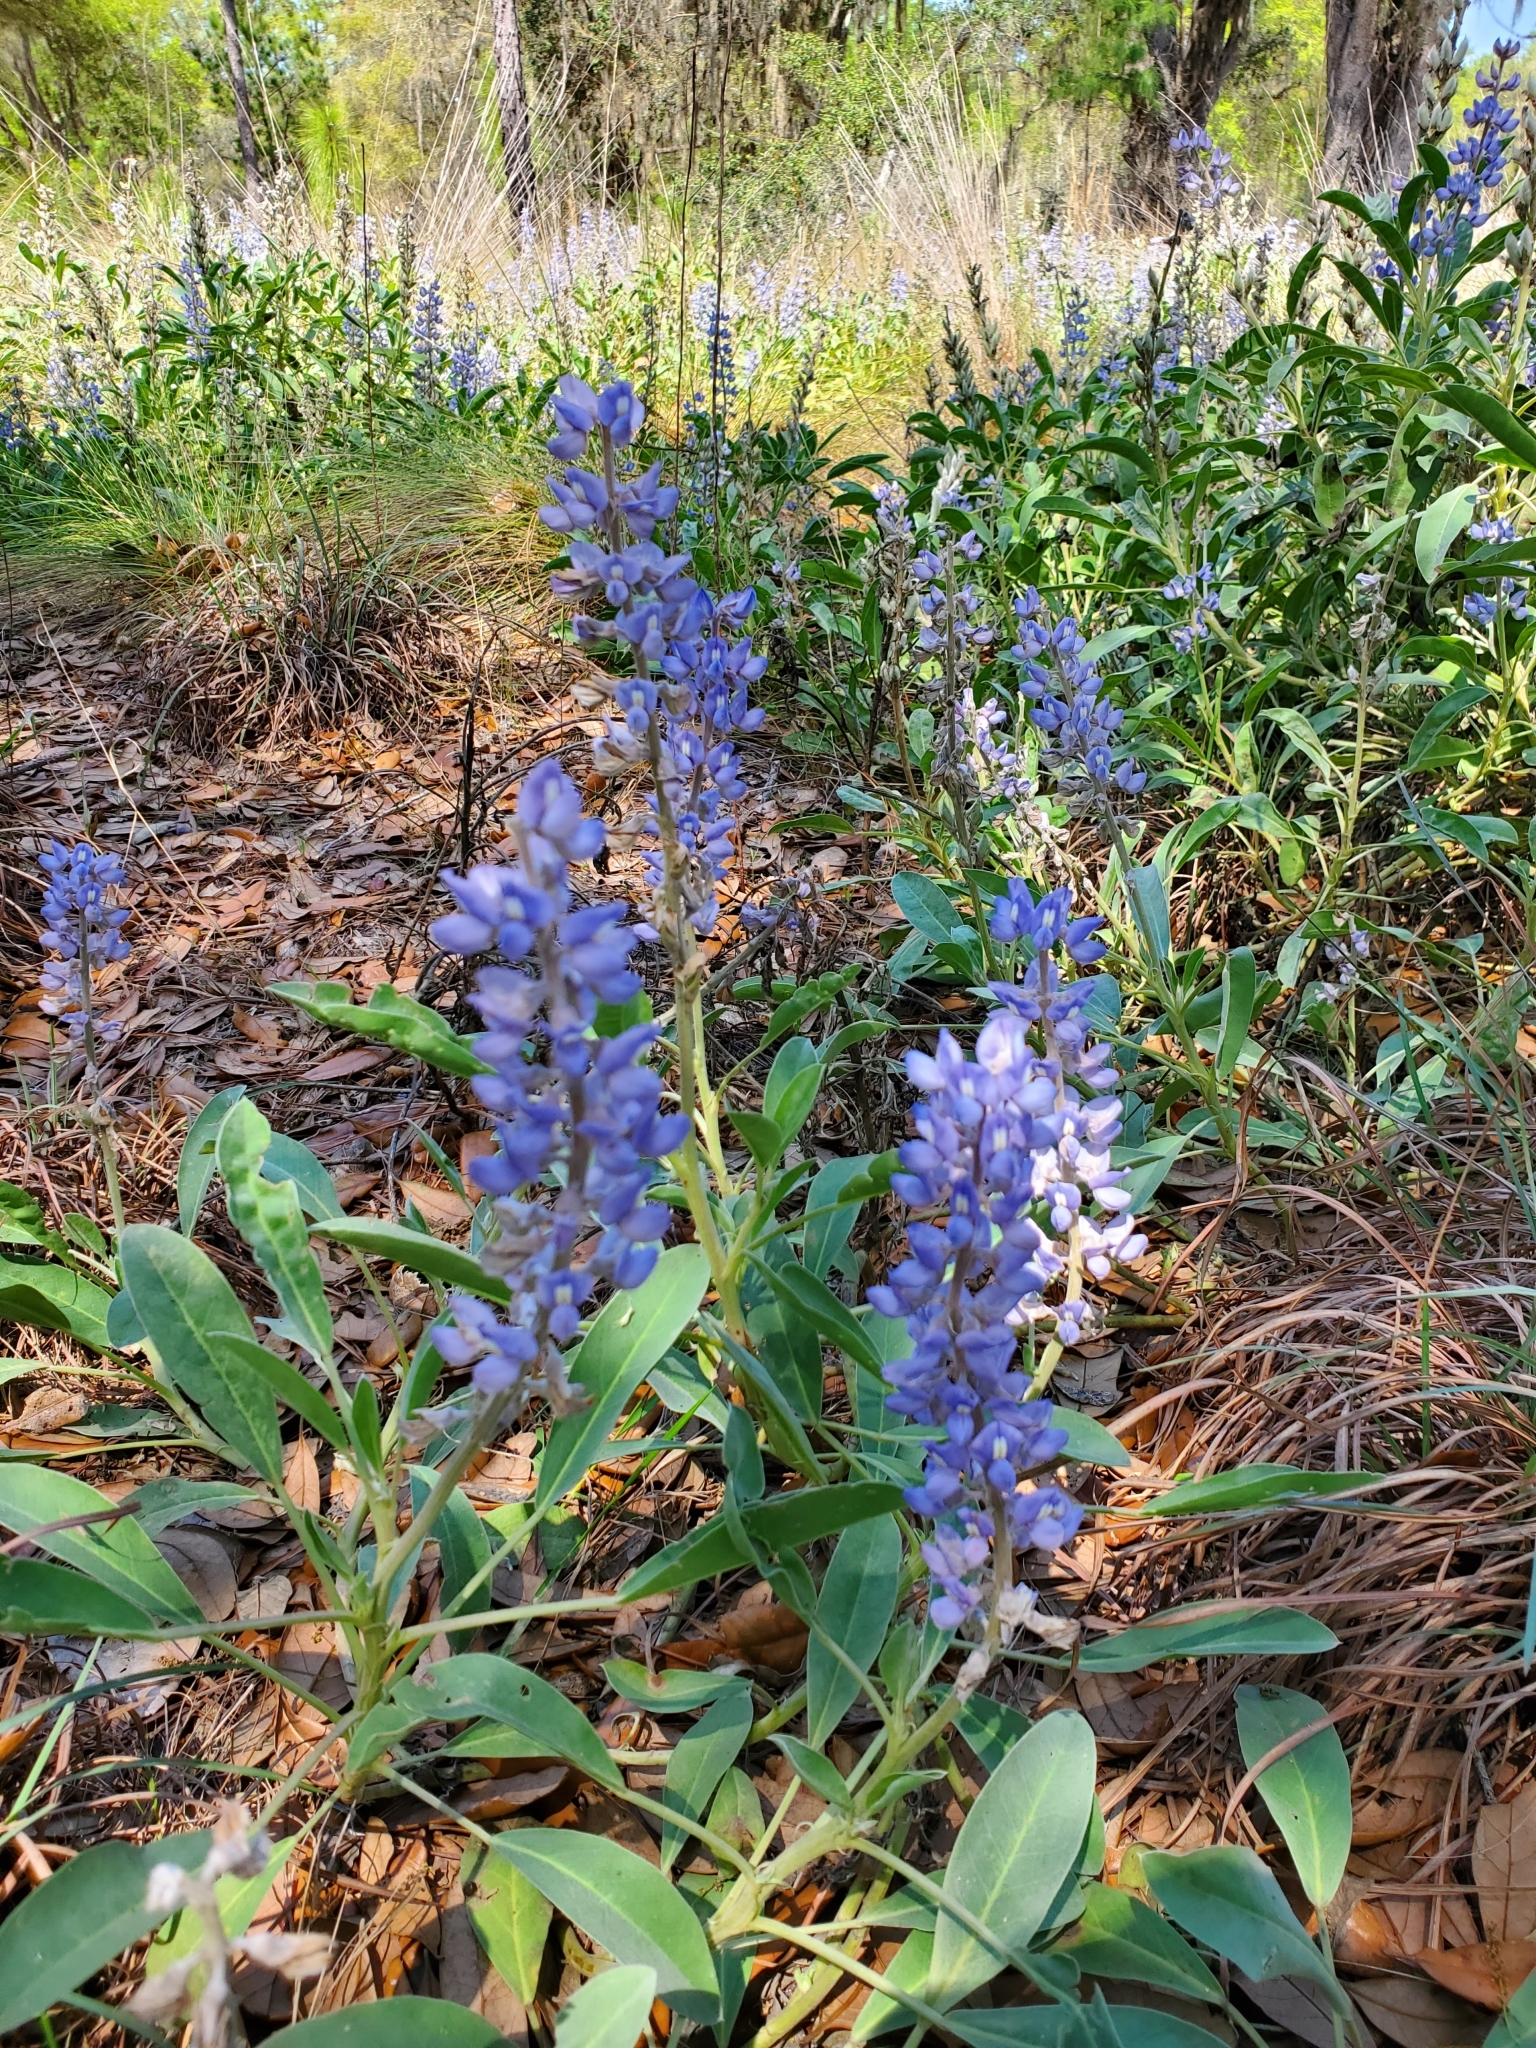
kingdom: Plantae
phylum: Tracheophyta
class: Magnoliopsida
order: Fabales
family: Fabaceae
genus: Lupinus
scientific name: Lupinus
